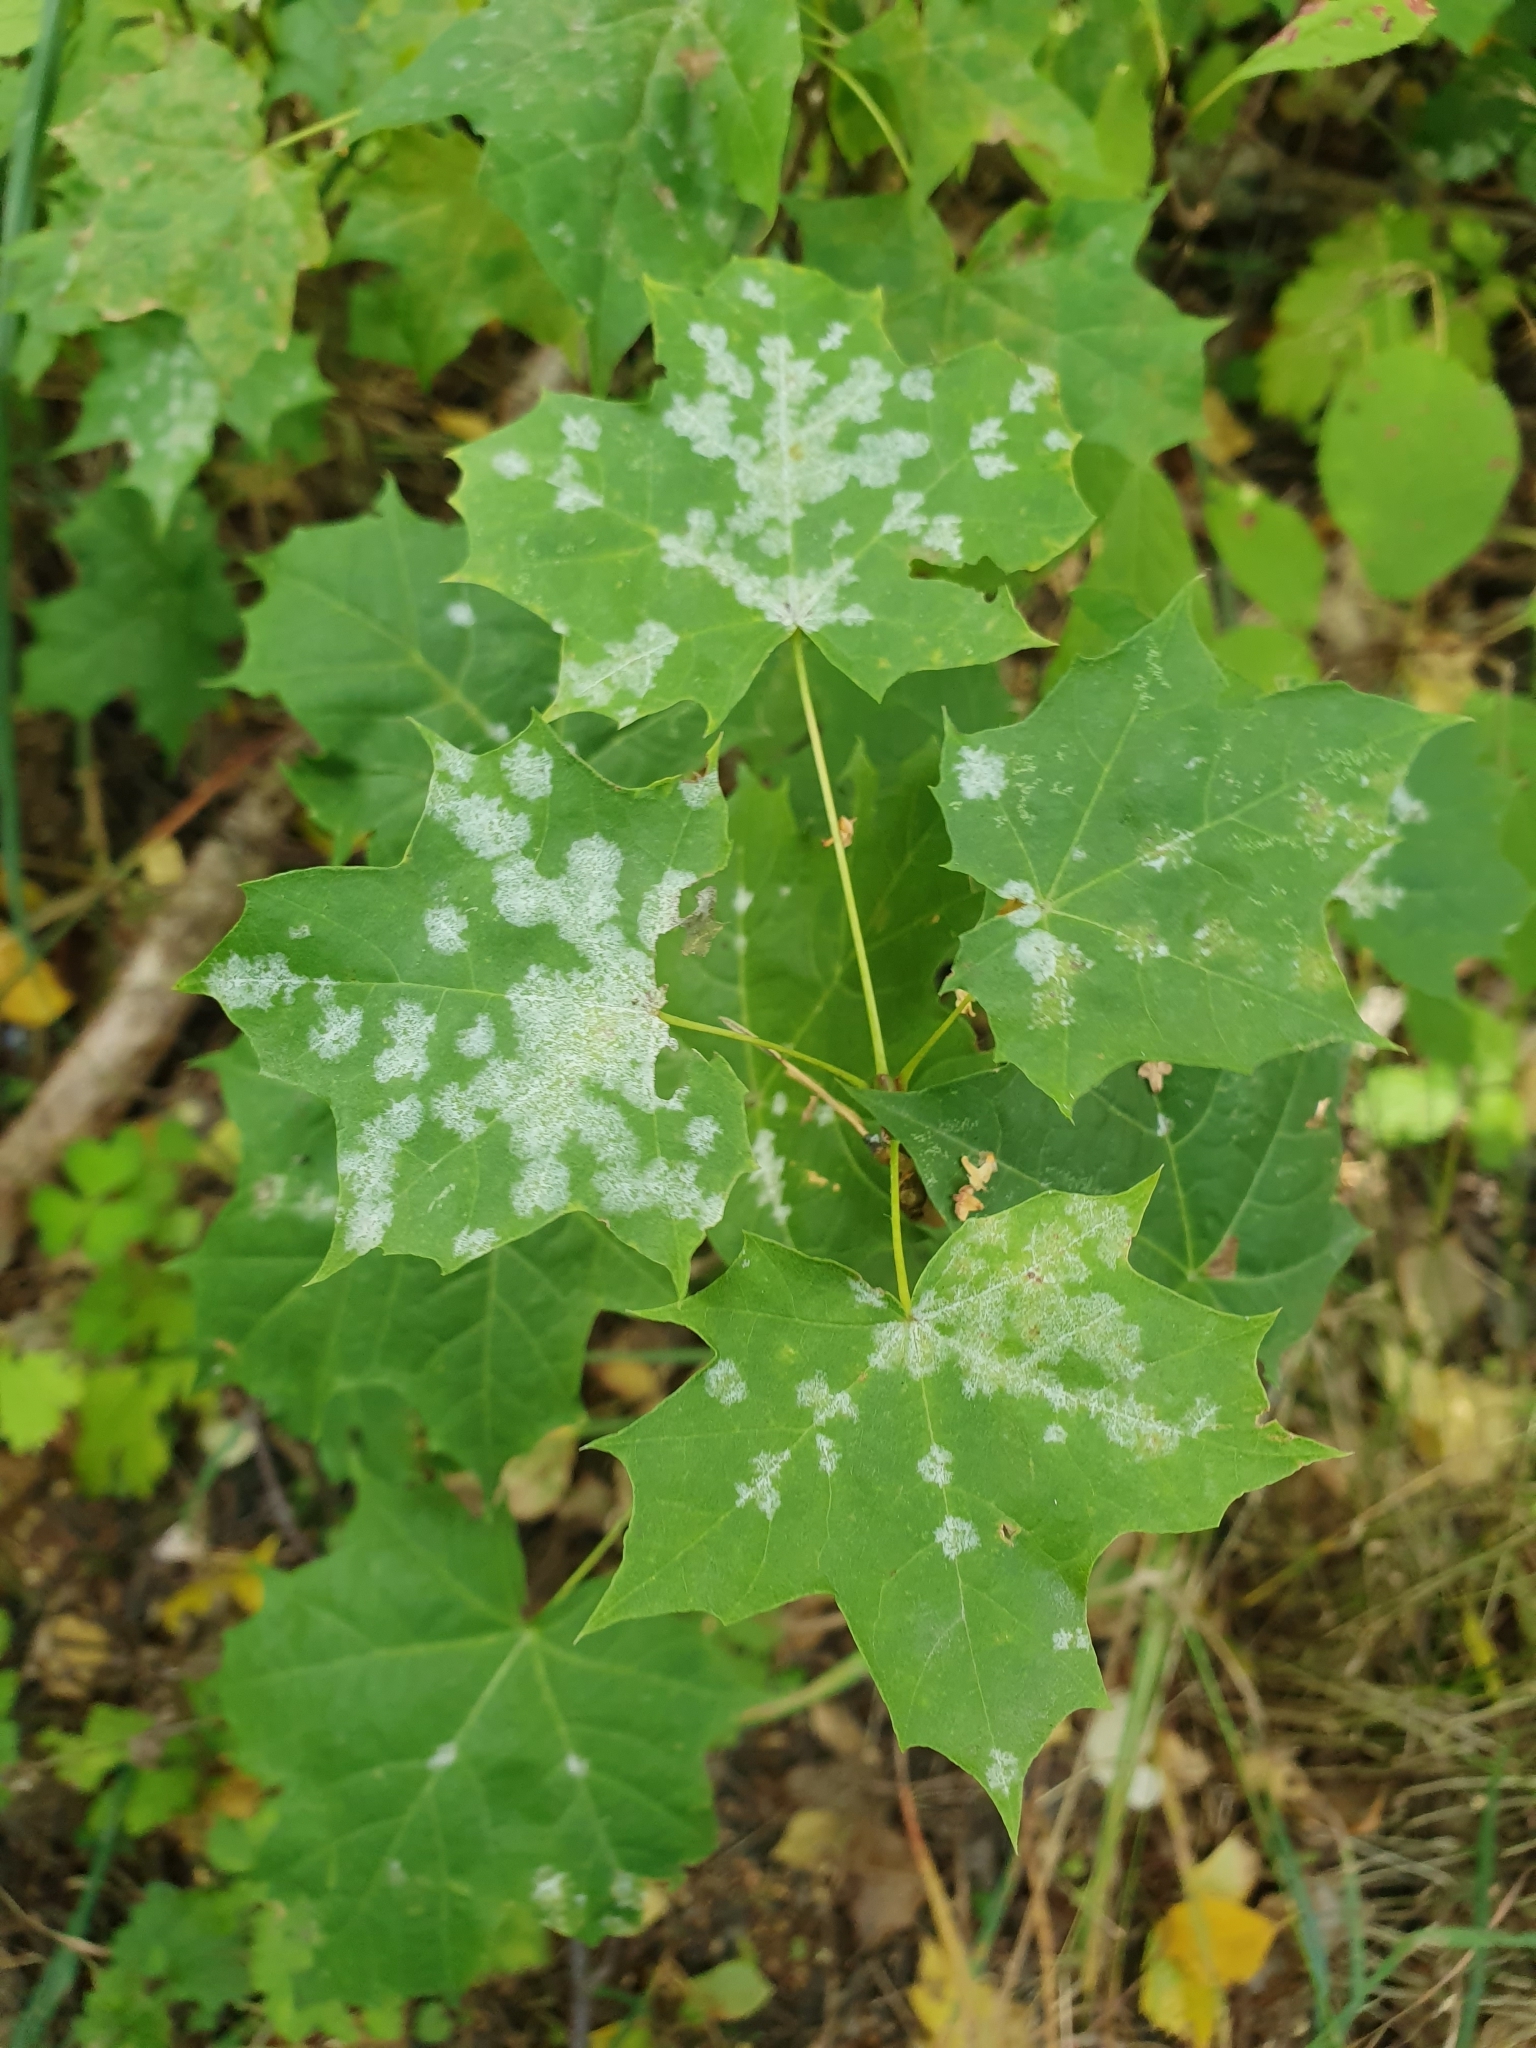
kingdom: Fungi
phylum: Ascomycota
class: Leotiomycetes
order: Helotiales
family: Erysiphaceae
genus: Sawadaea
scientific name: Sawadaea tulasnei
